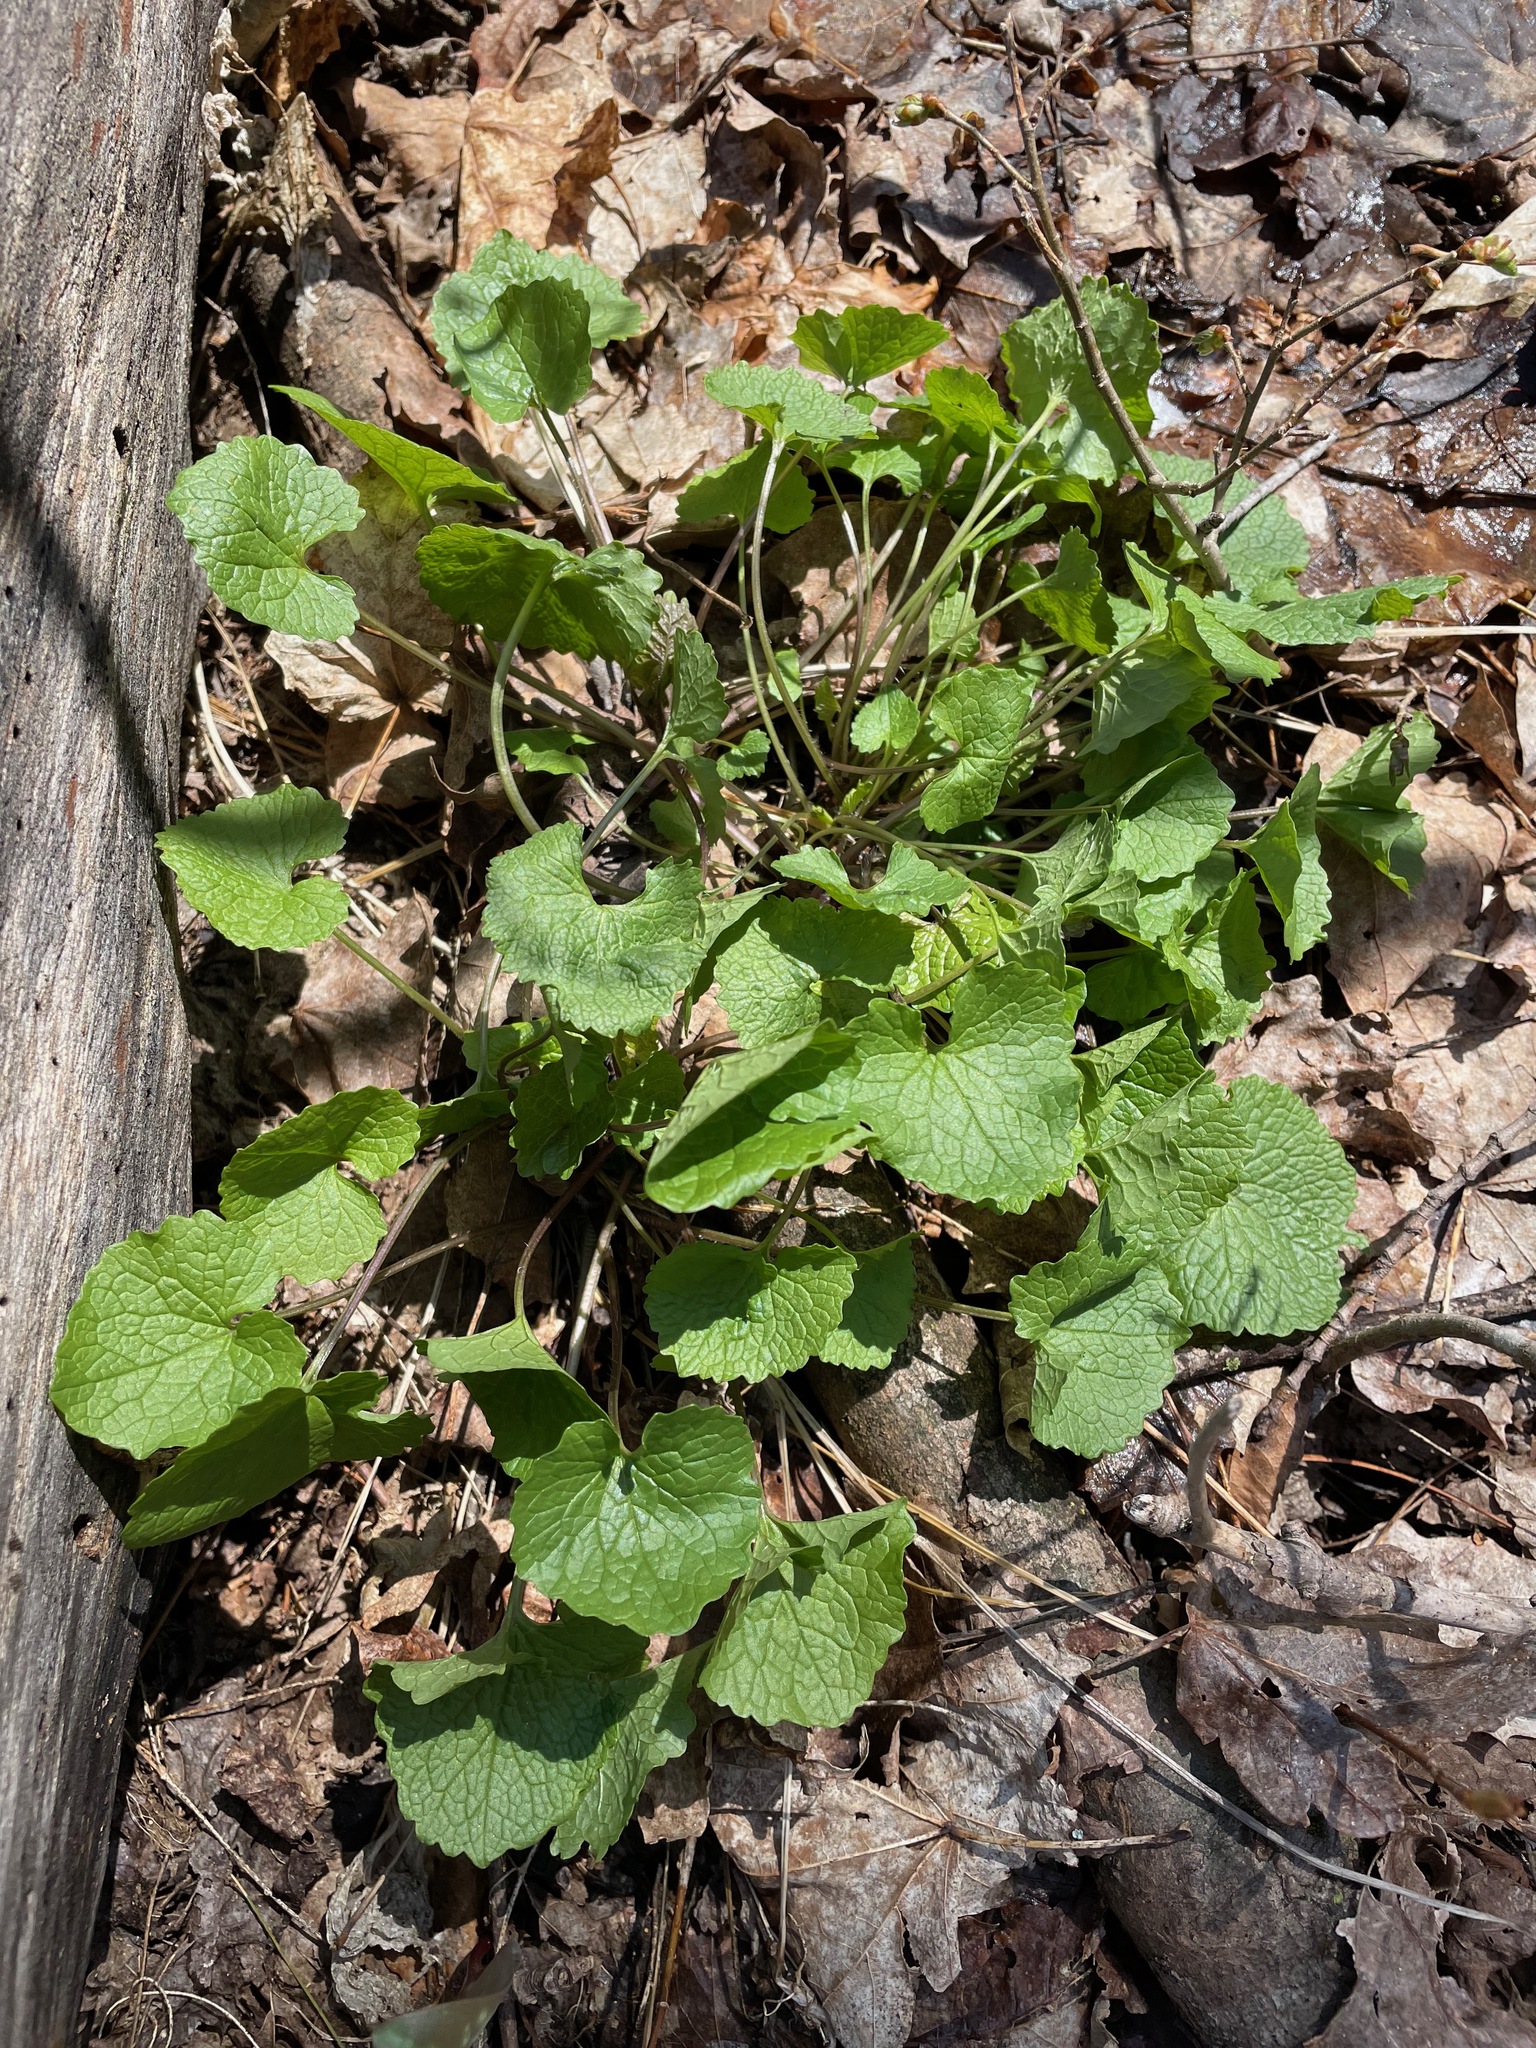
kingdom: Plantae
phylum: Tracheophyta
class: Magnoliopsida
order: Brassicales
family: Brassicaceae
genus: Alliaria
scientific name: Alliaria petiolata
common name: Garlic mustard
